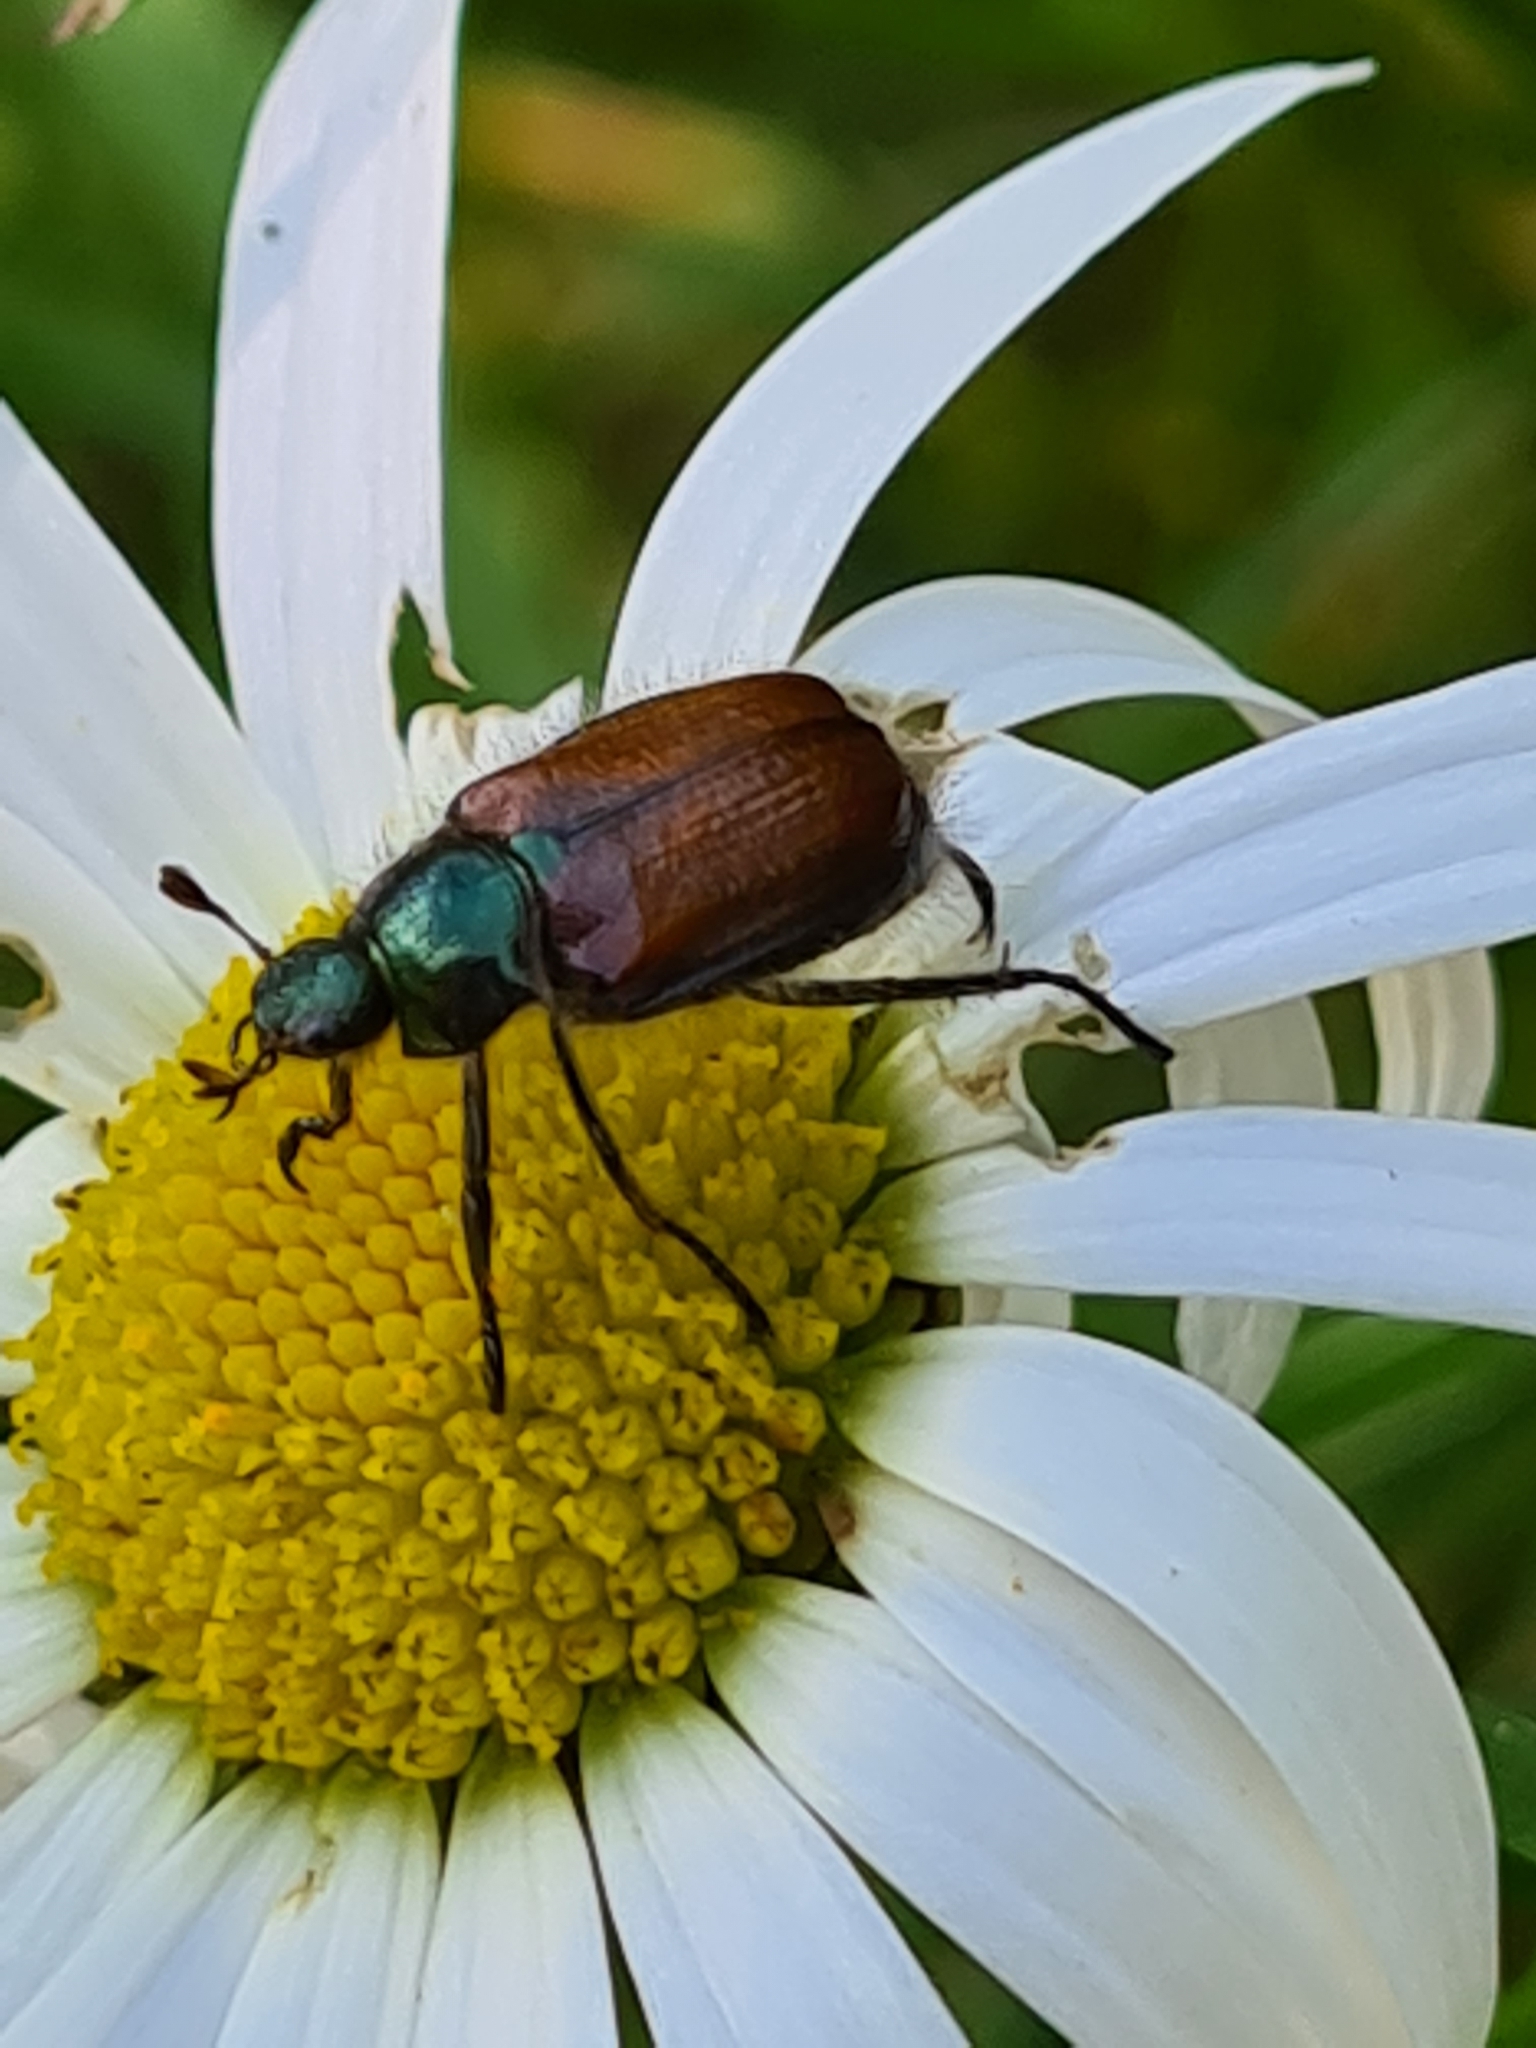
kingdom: Animalia
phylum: Arthropoda
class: Insecta
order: Coleoptera
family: Scarabaeidae
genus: Phyllopertha
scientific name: Phyllopertha horticola
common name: Garden chafer
